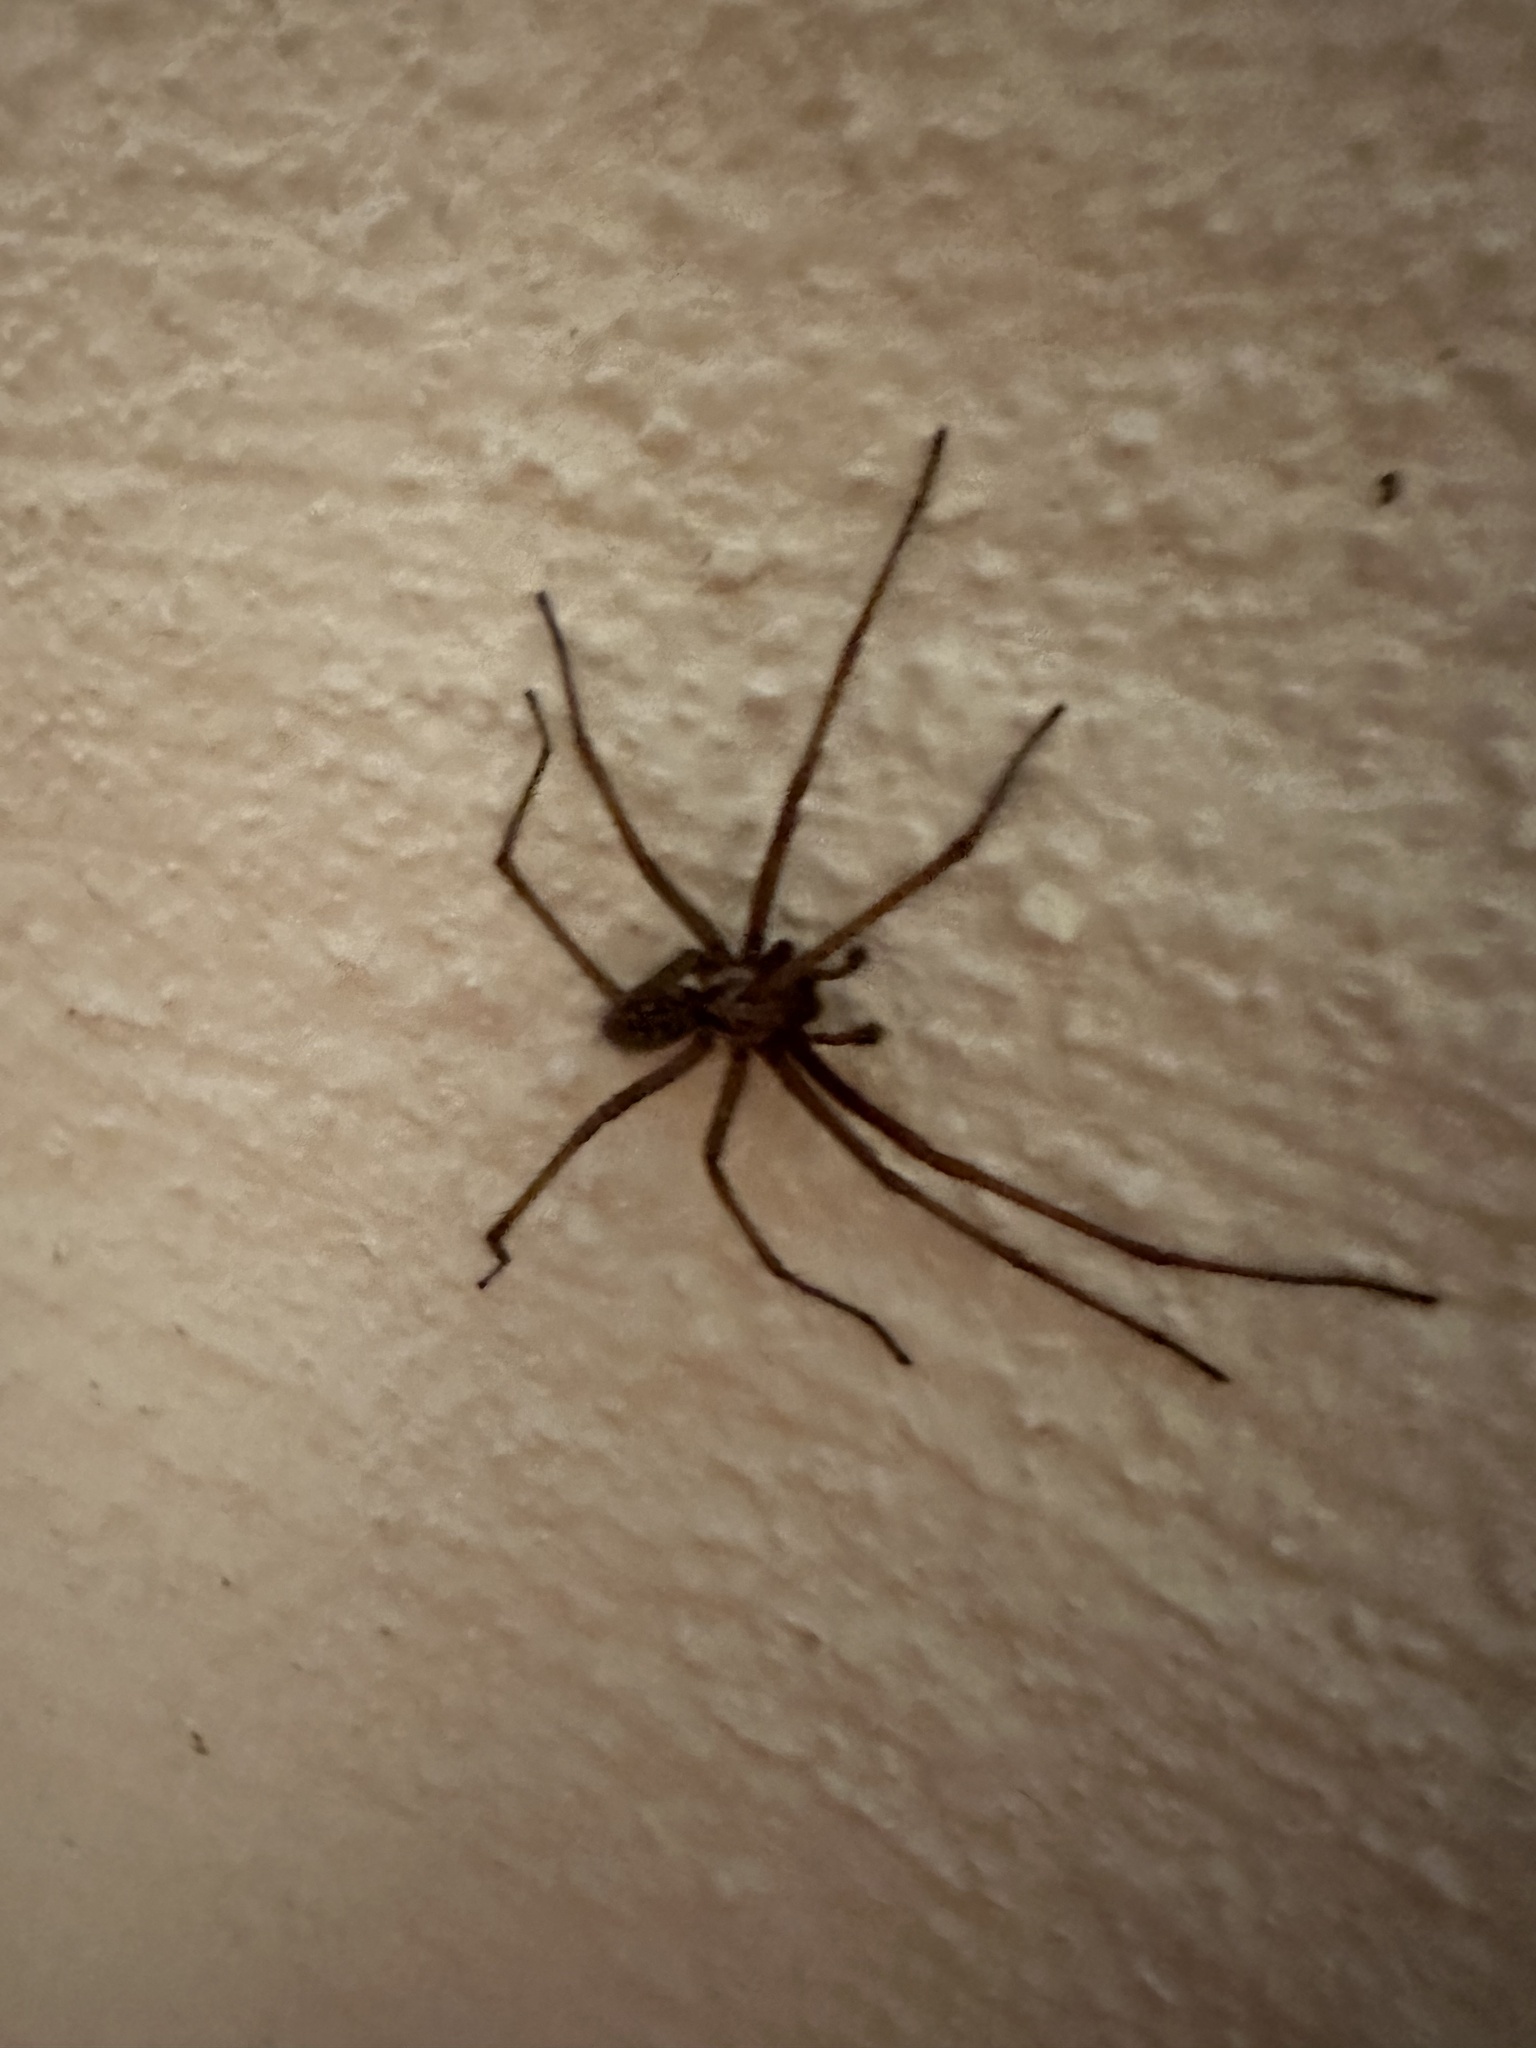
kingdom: Animalia
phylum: Arthropoda
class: Arachnida
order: Araneae
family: Agelenidae
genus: Eratigena
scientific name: Eratigena atrica
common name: Giant house spider
